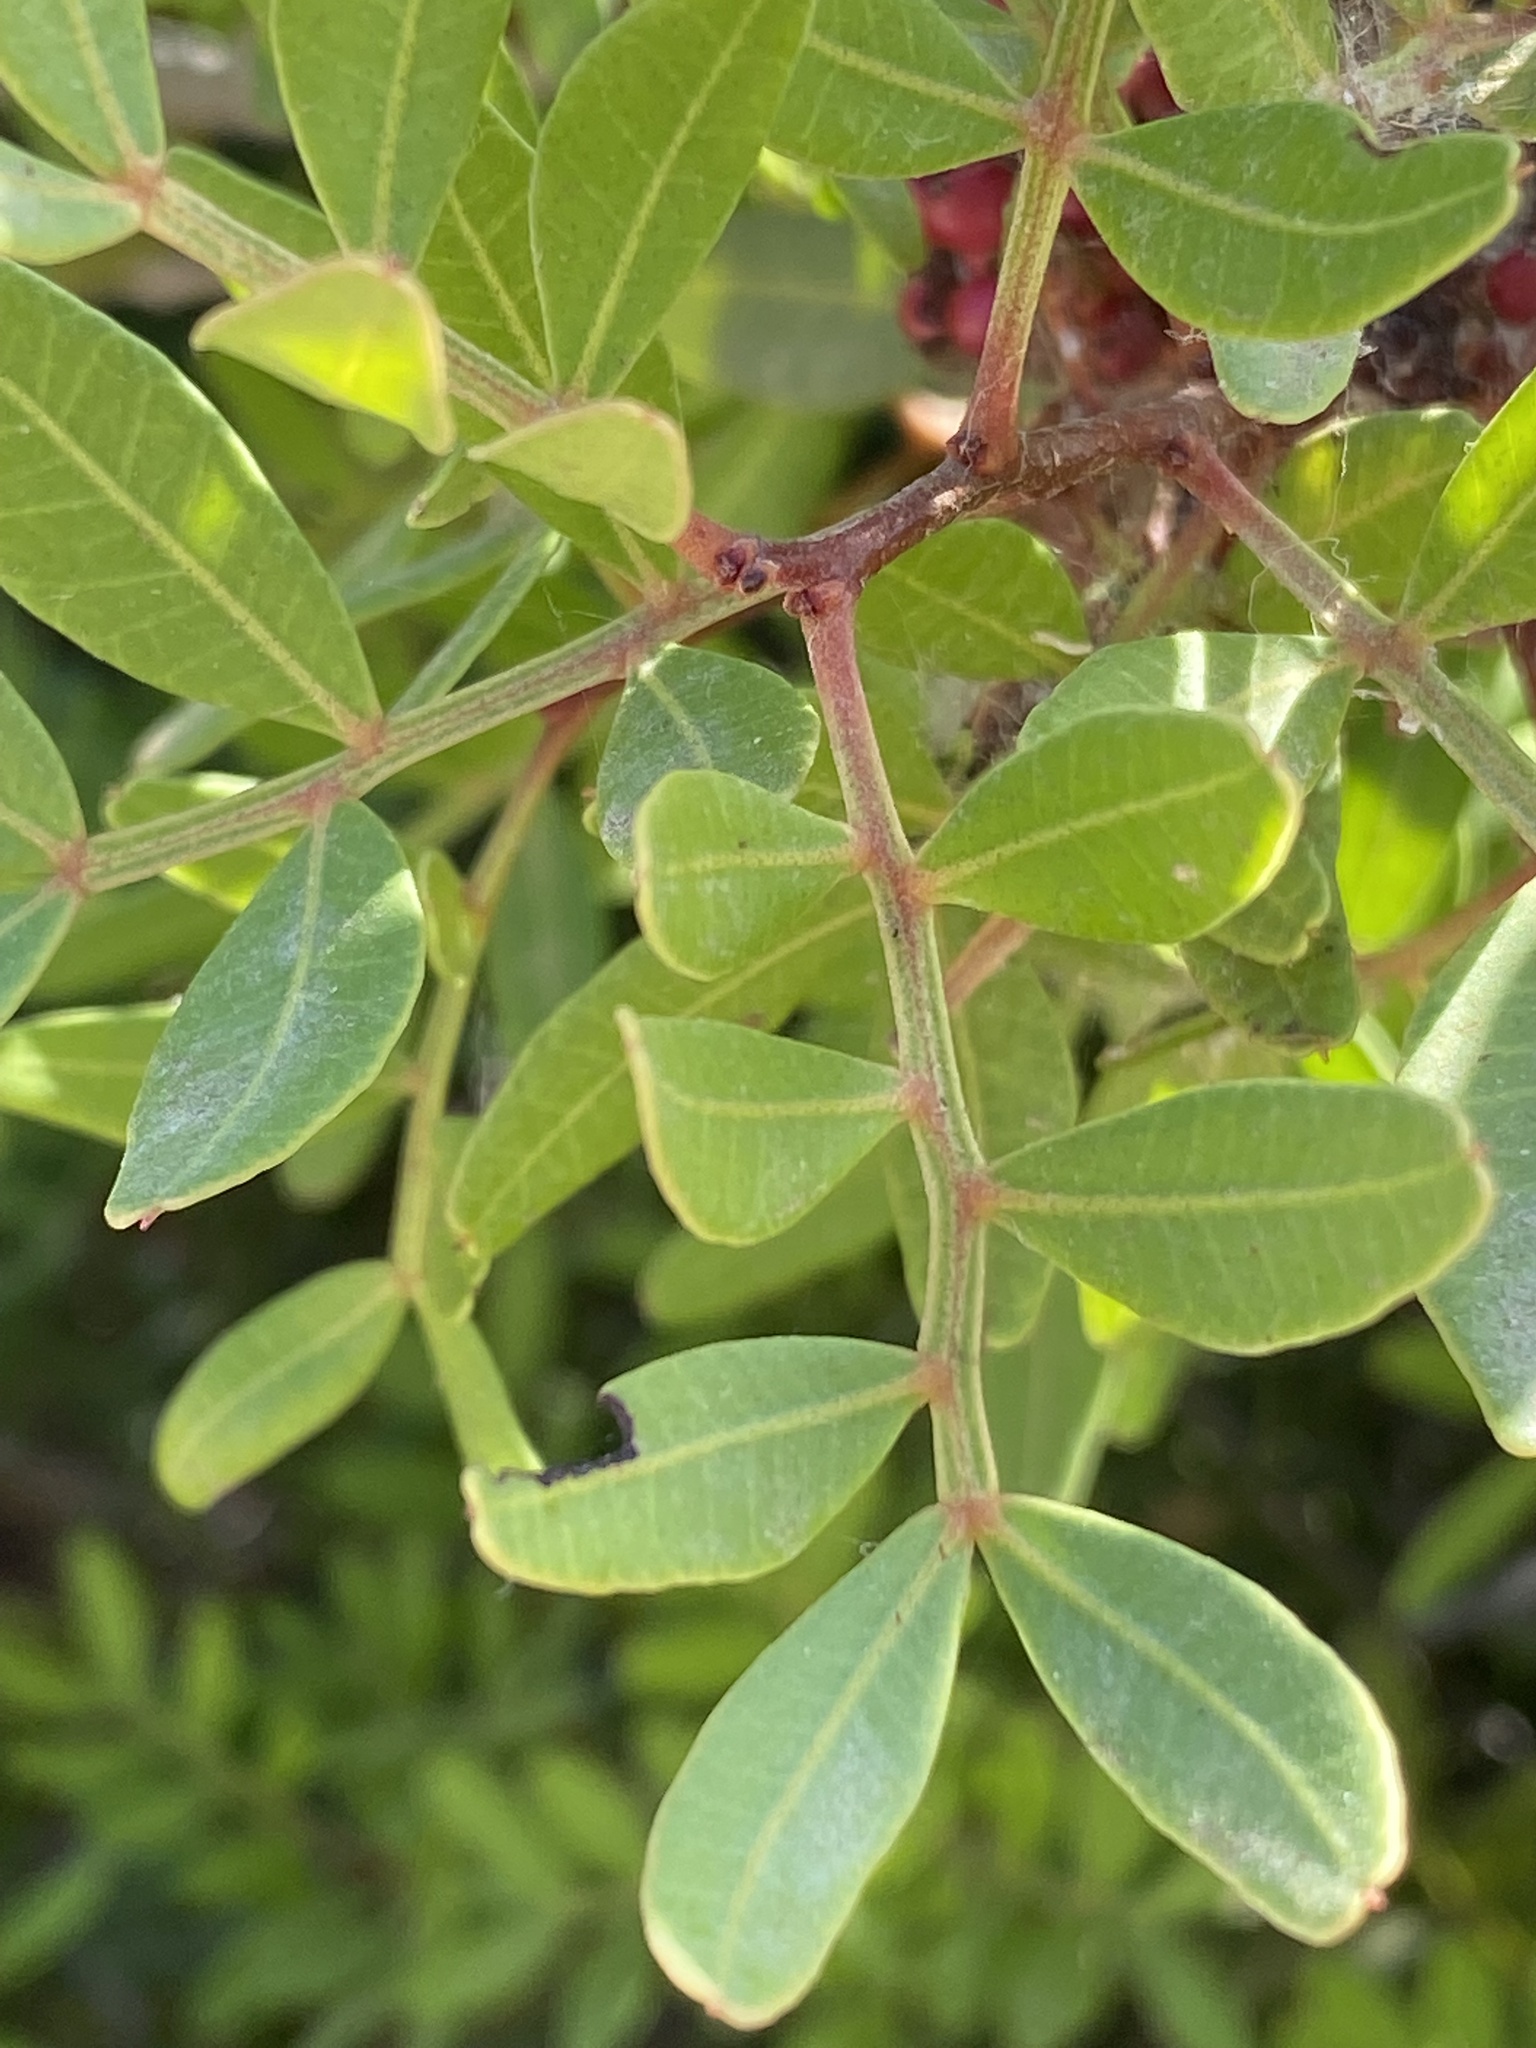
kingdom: Plantae
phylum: Tracheophyta
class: Magnoliopsida
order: Sapindales
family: Anacardiaceae
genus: Pistacia
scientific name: Pistacia lentiscus
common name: Lentisk
